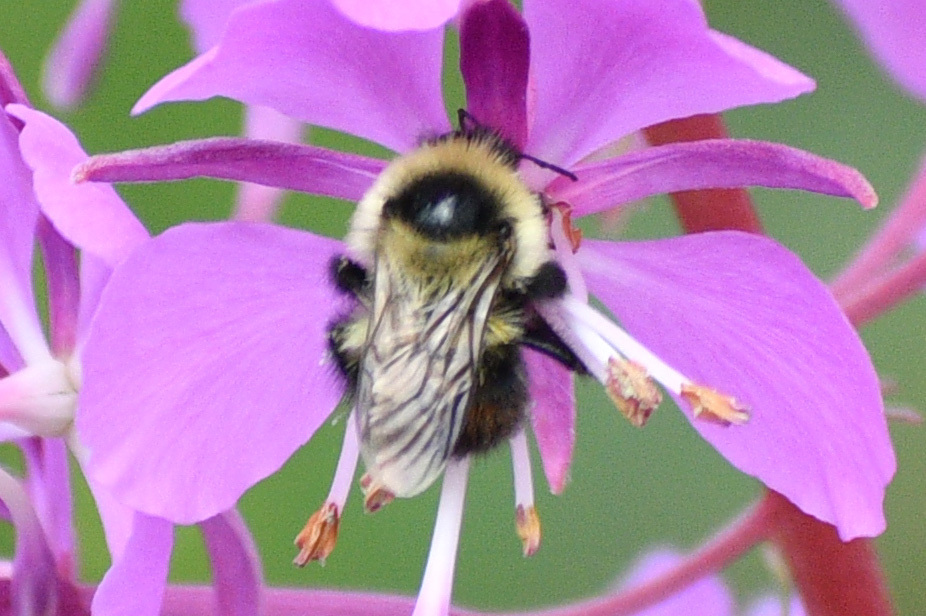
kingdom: Animalia
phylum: Arthropoda
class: Insecta
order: Hymenoptera
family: Apidae
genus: Bombus
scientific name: Bombus rufocinctus
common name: Red-belted bumble bee
